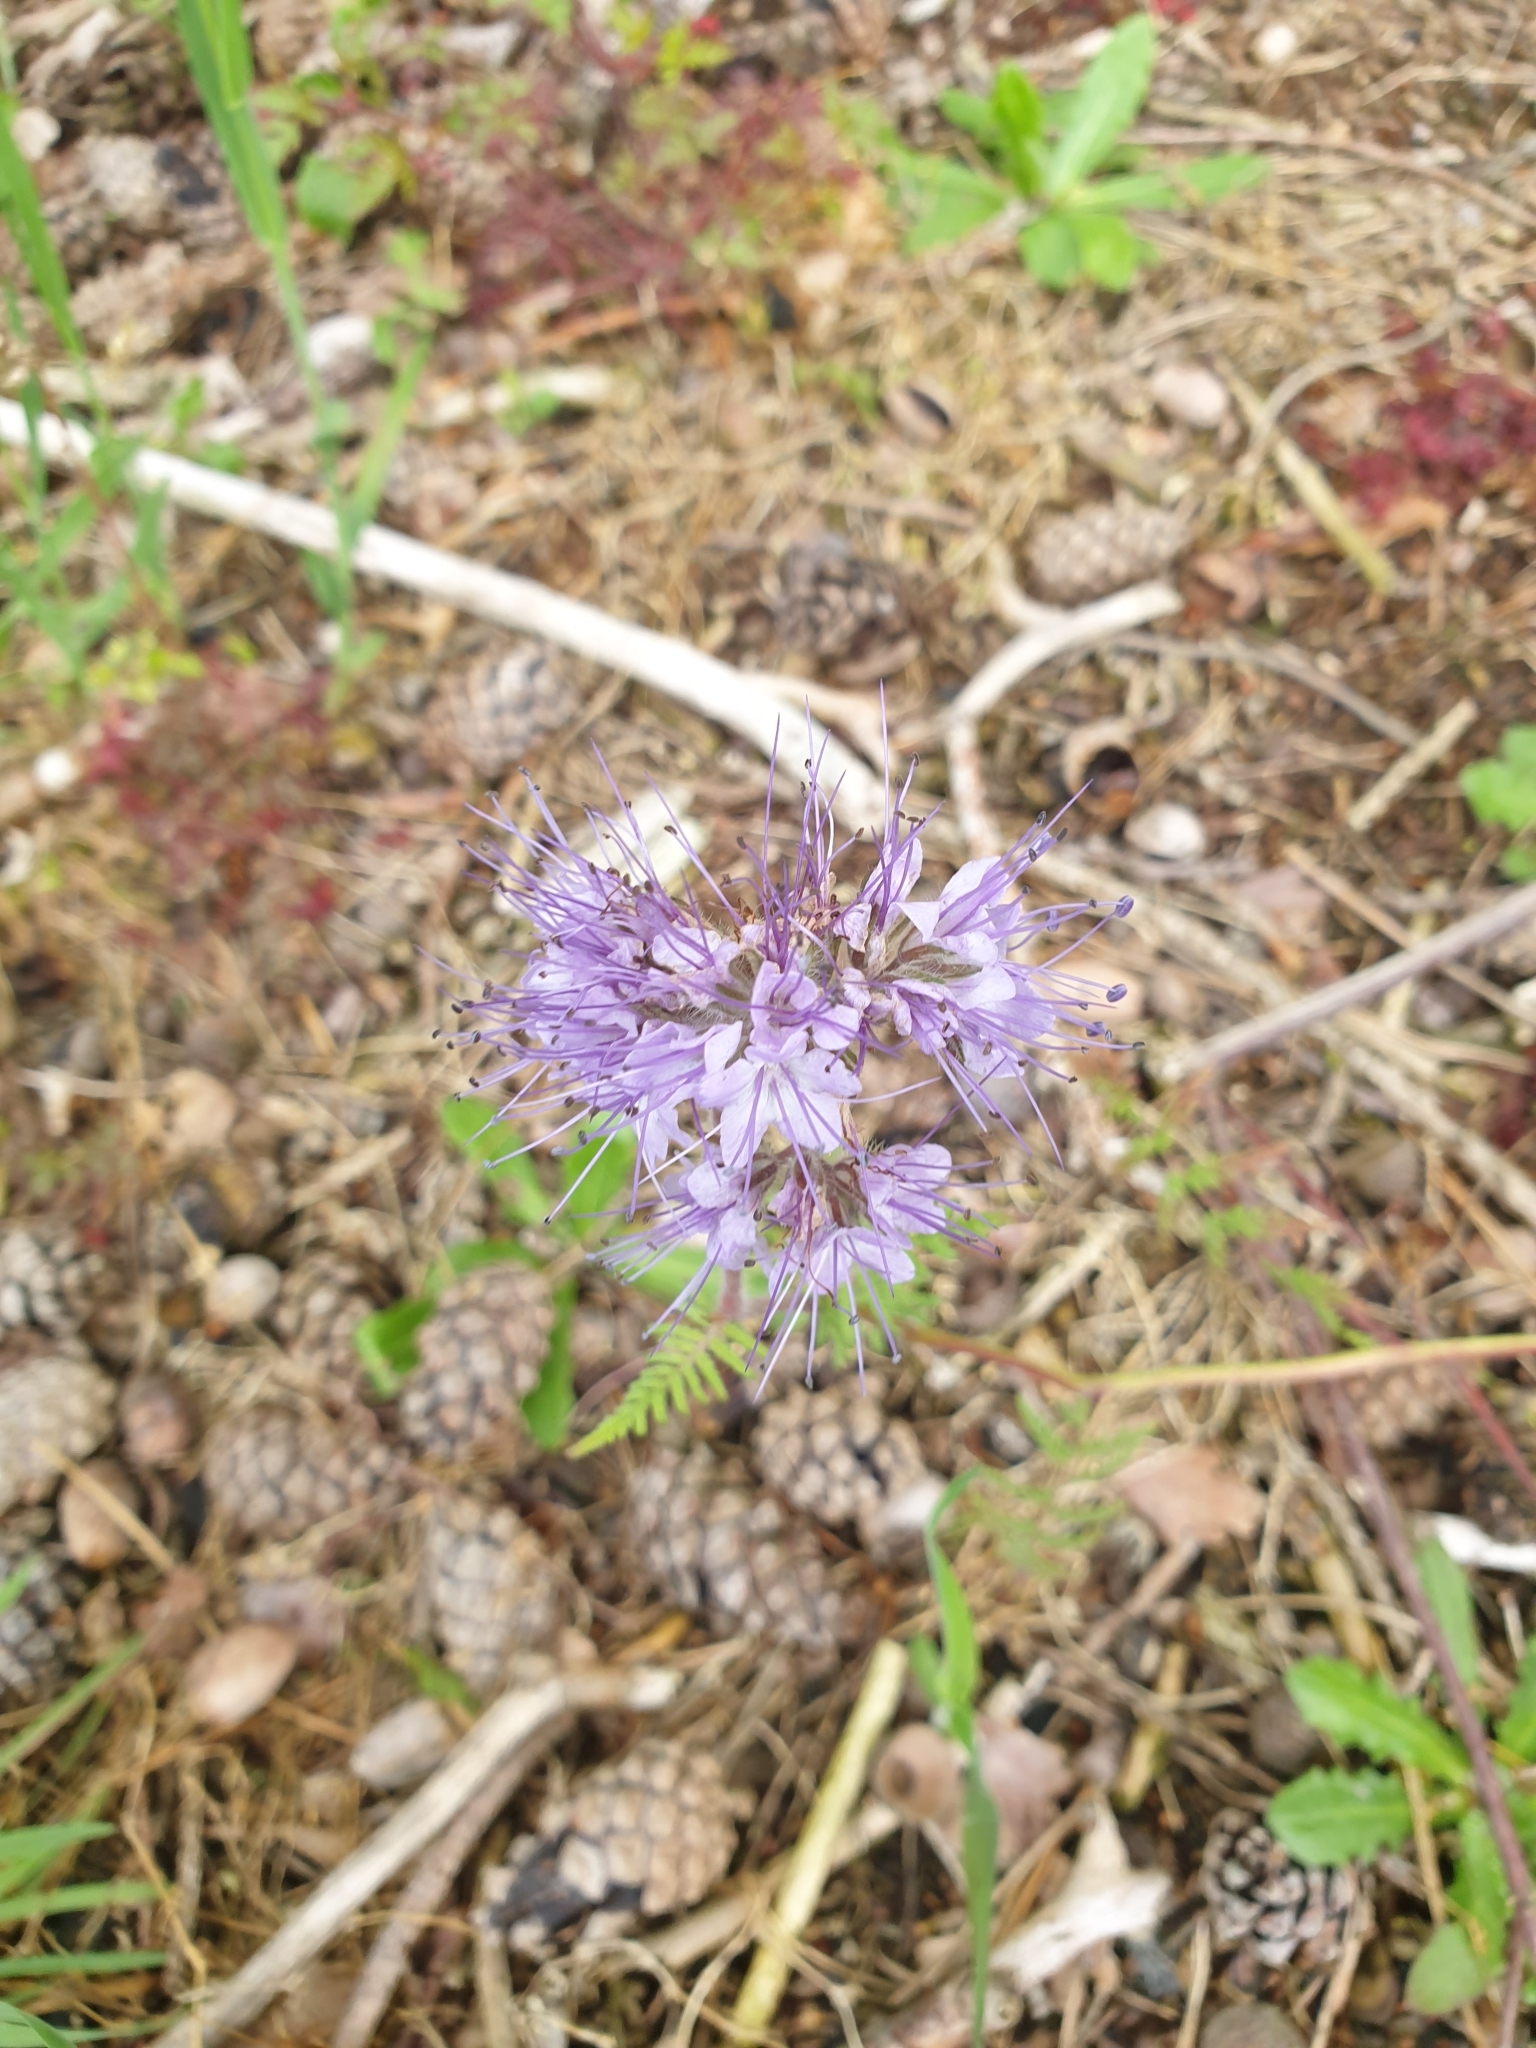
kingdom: Plantae
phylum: Tracheophyta
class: Magnoliopsida
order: Boraginales
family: Hydrophyllaceae
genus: Phacelia
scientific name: Phacelia tanacetifolia
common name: Phacelia
